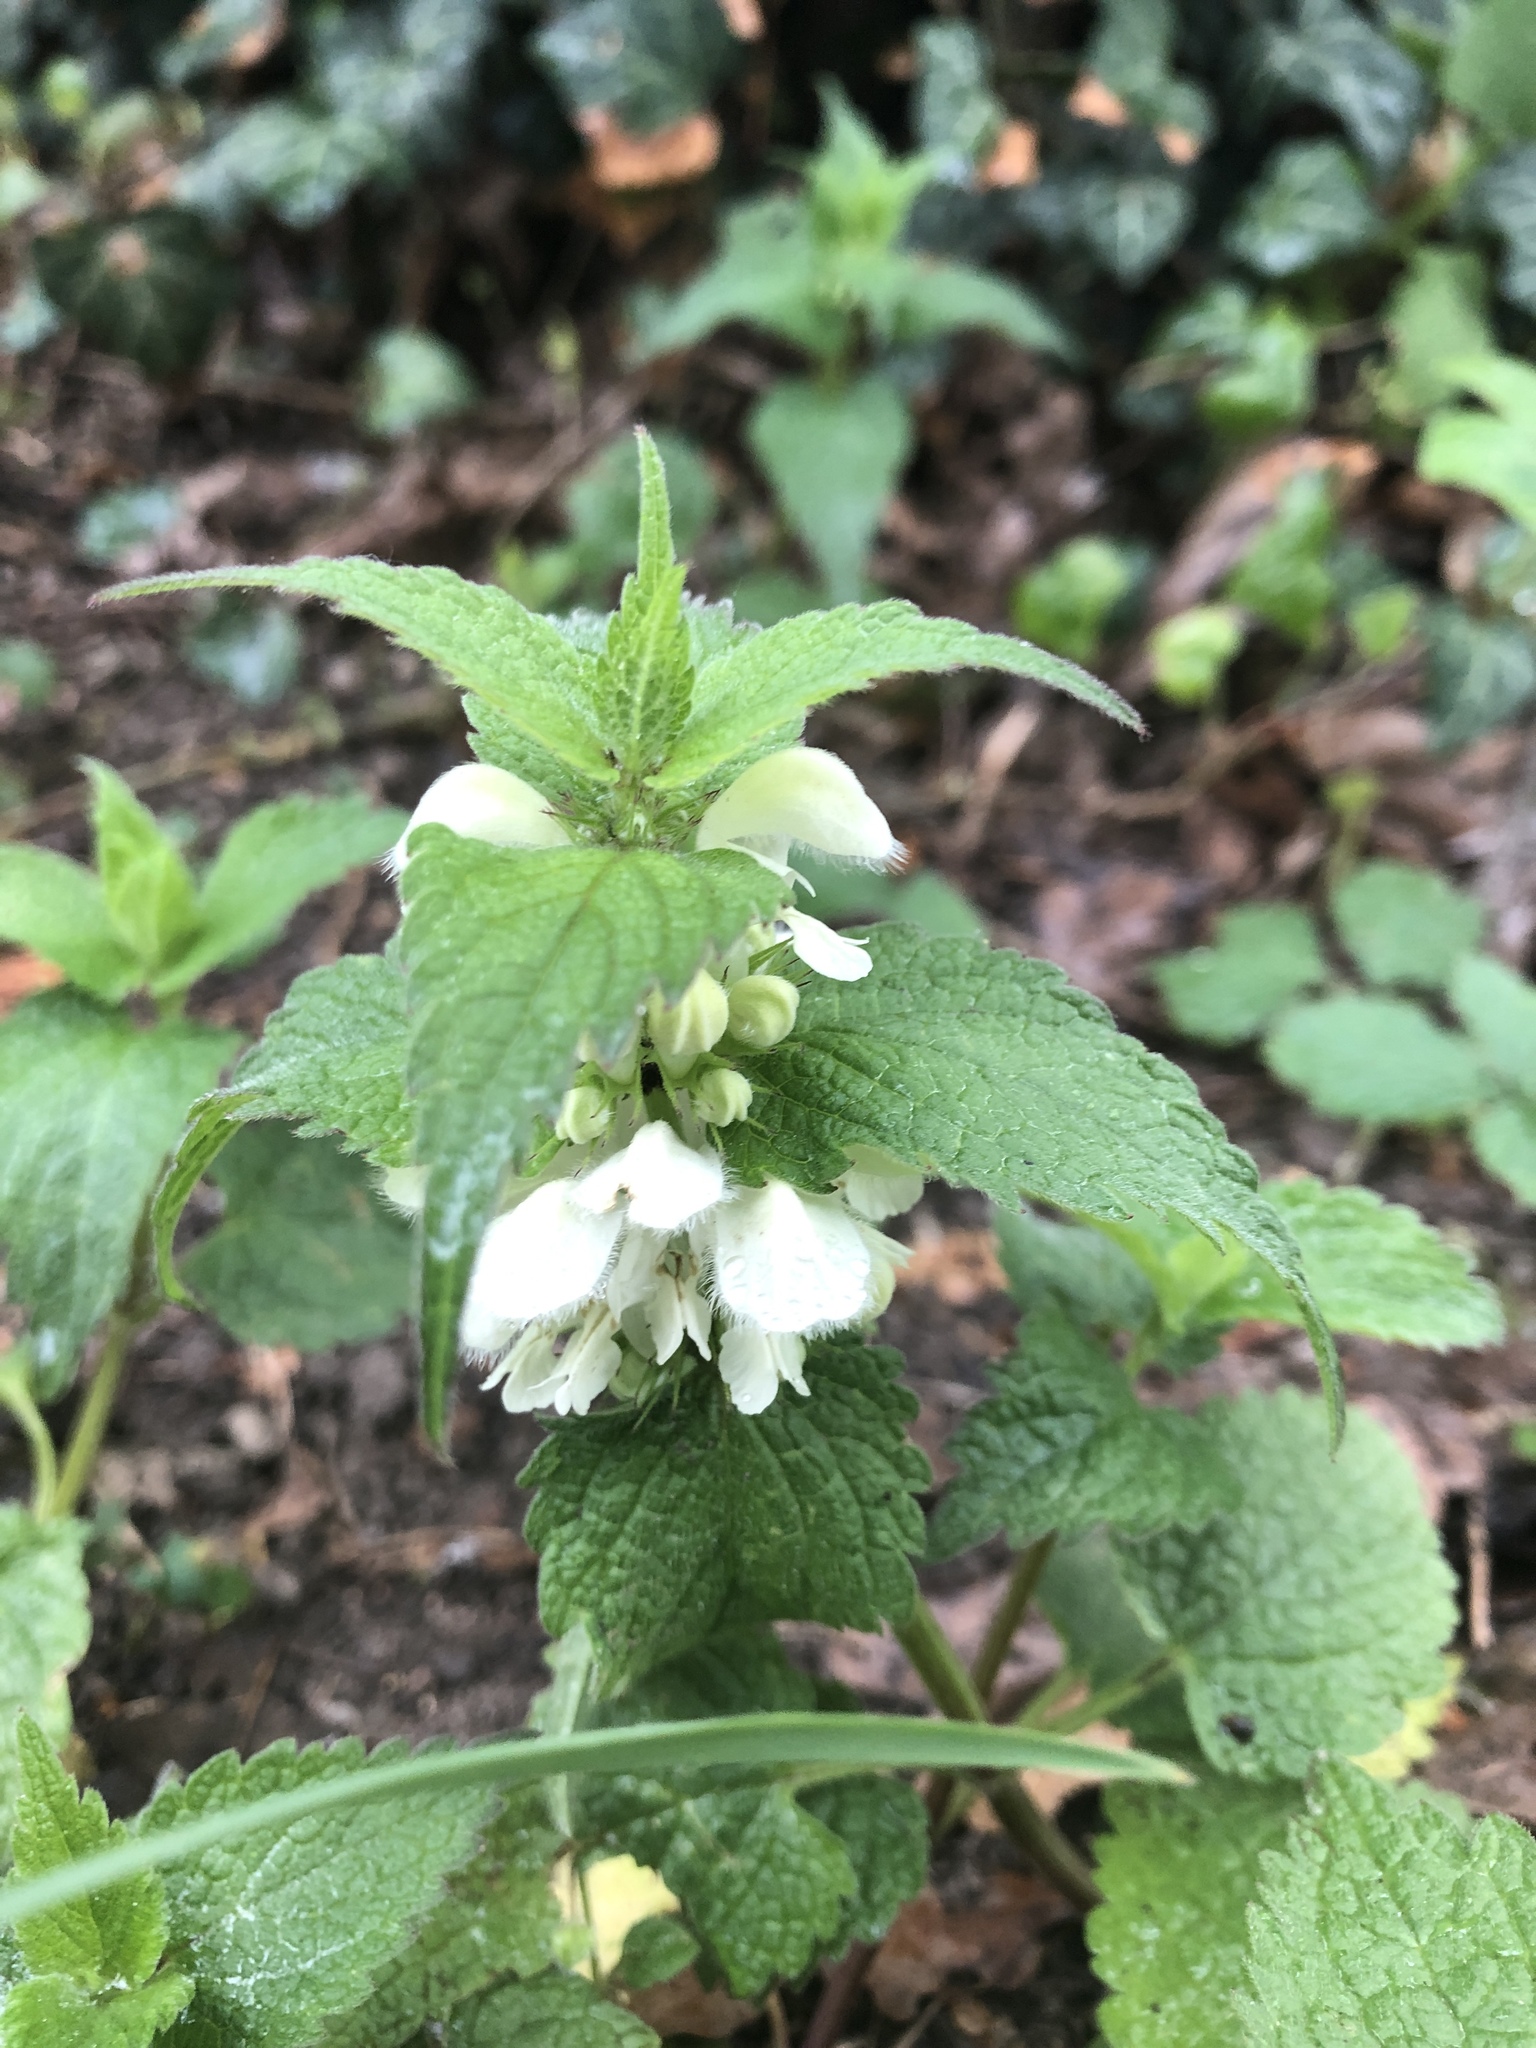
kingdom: Plantae
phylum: Tracheophyta
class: Magnoliopsida
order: Lamiales
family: Lamiaceae
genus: Lamium
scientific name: Lamium album
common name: White dead-nettle
